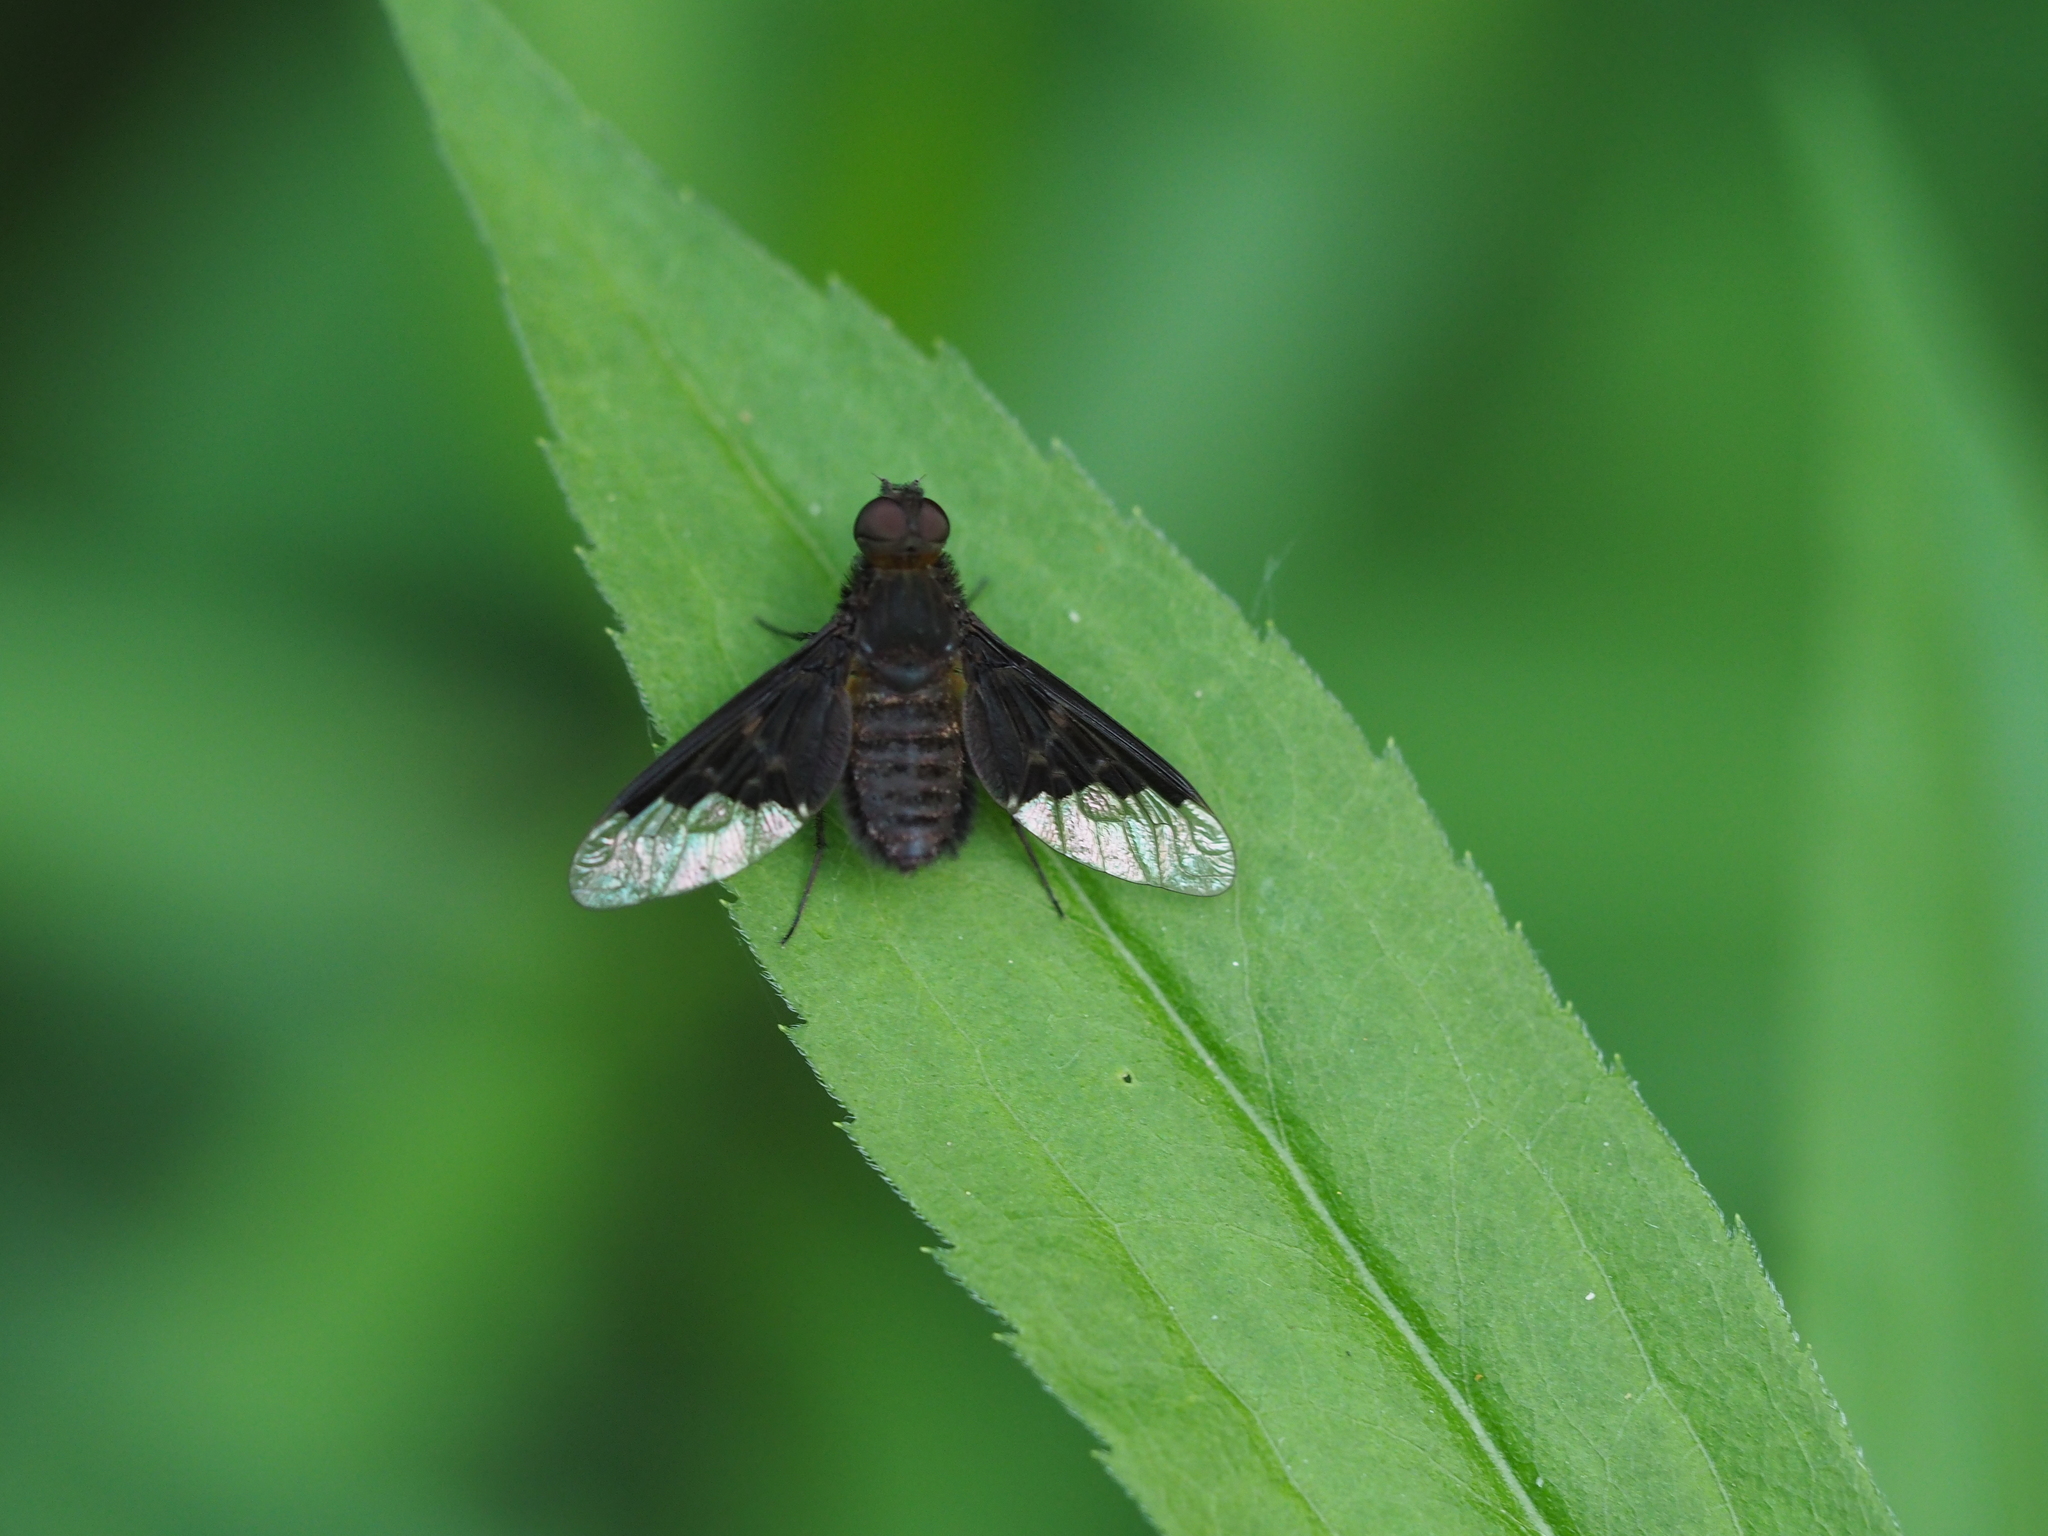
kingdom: Animalia
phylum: Arthropoda
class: Insecta
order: Diptera
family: Bombyliidae
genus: Hemipenthes
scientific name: Hemipenthes morio
